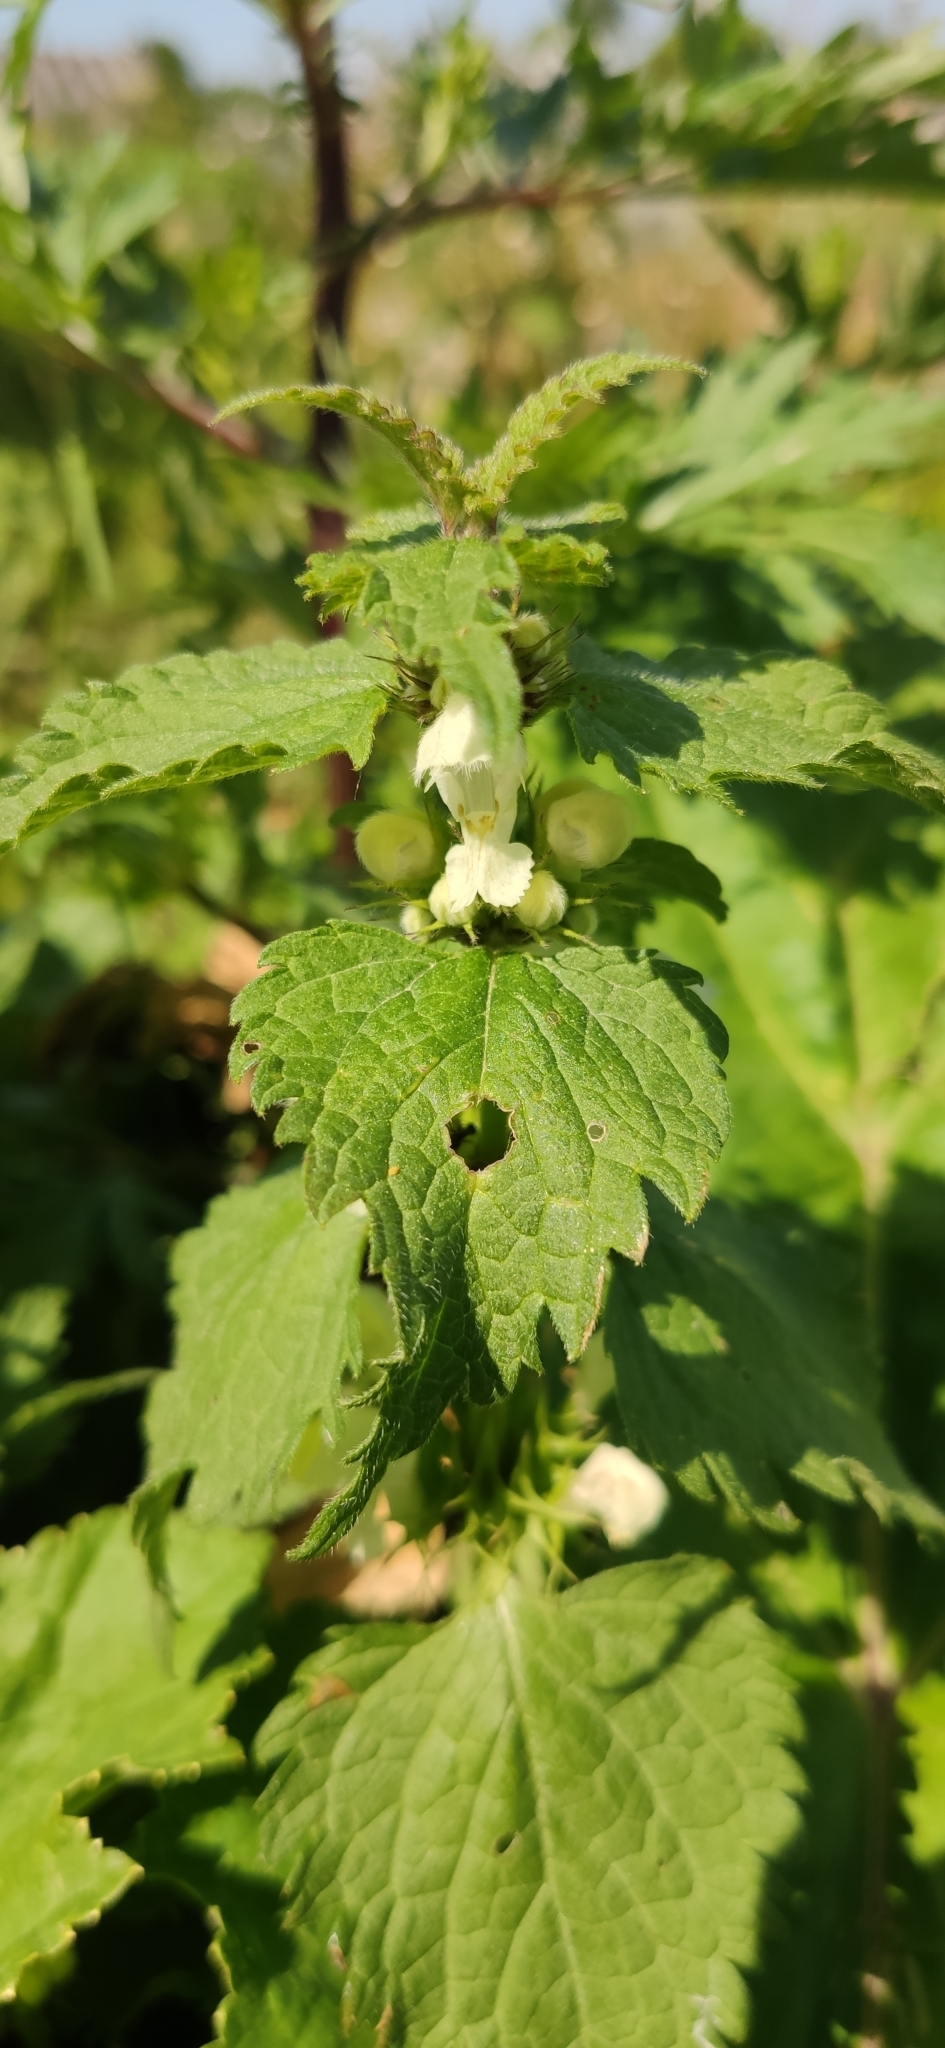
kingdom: Plantae
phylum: Tracheophyta
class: Magnoliopsida
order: Lamiales
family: Lamiaceae
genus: Lamium
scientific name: Lamium album
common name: White dead-nettle
